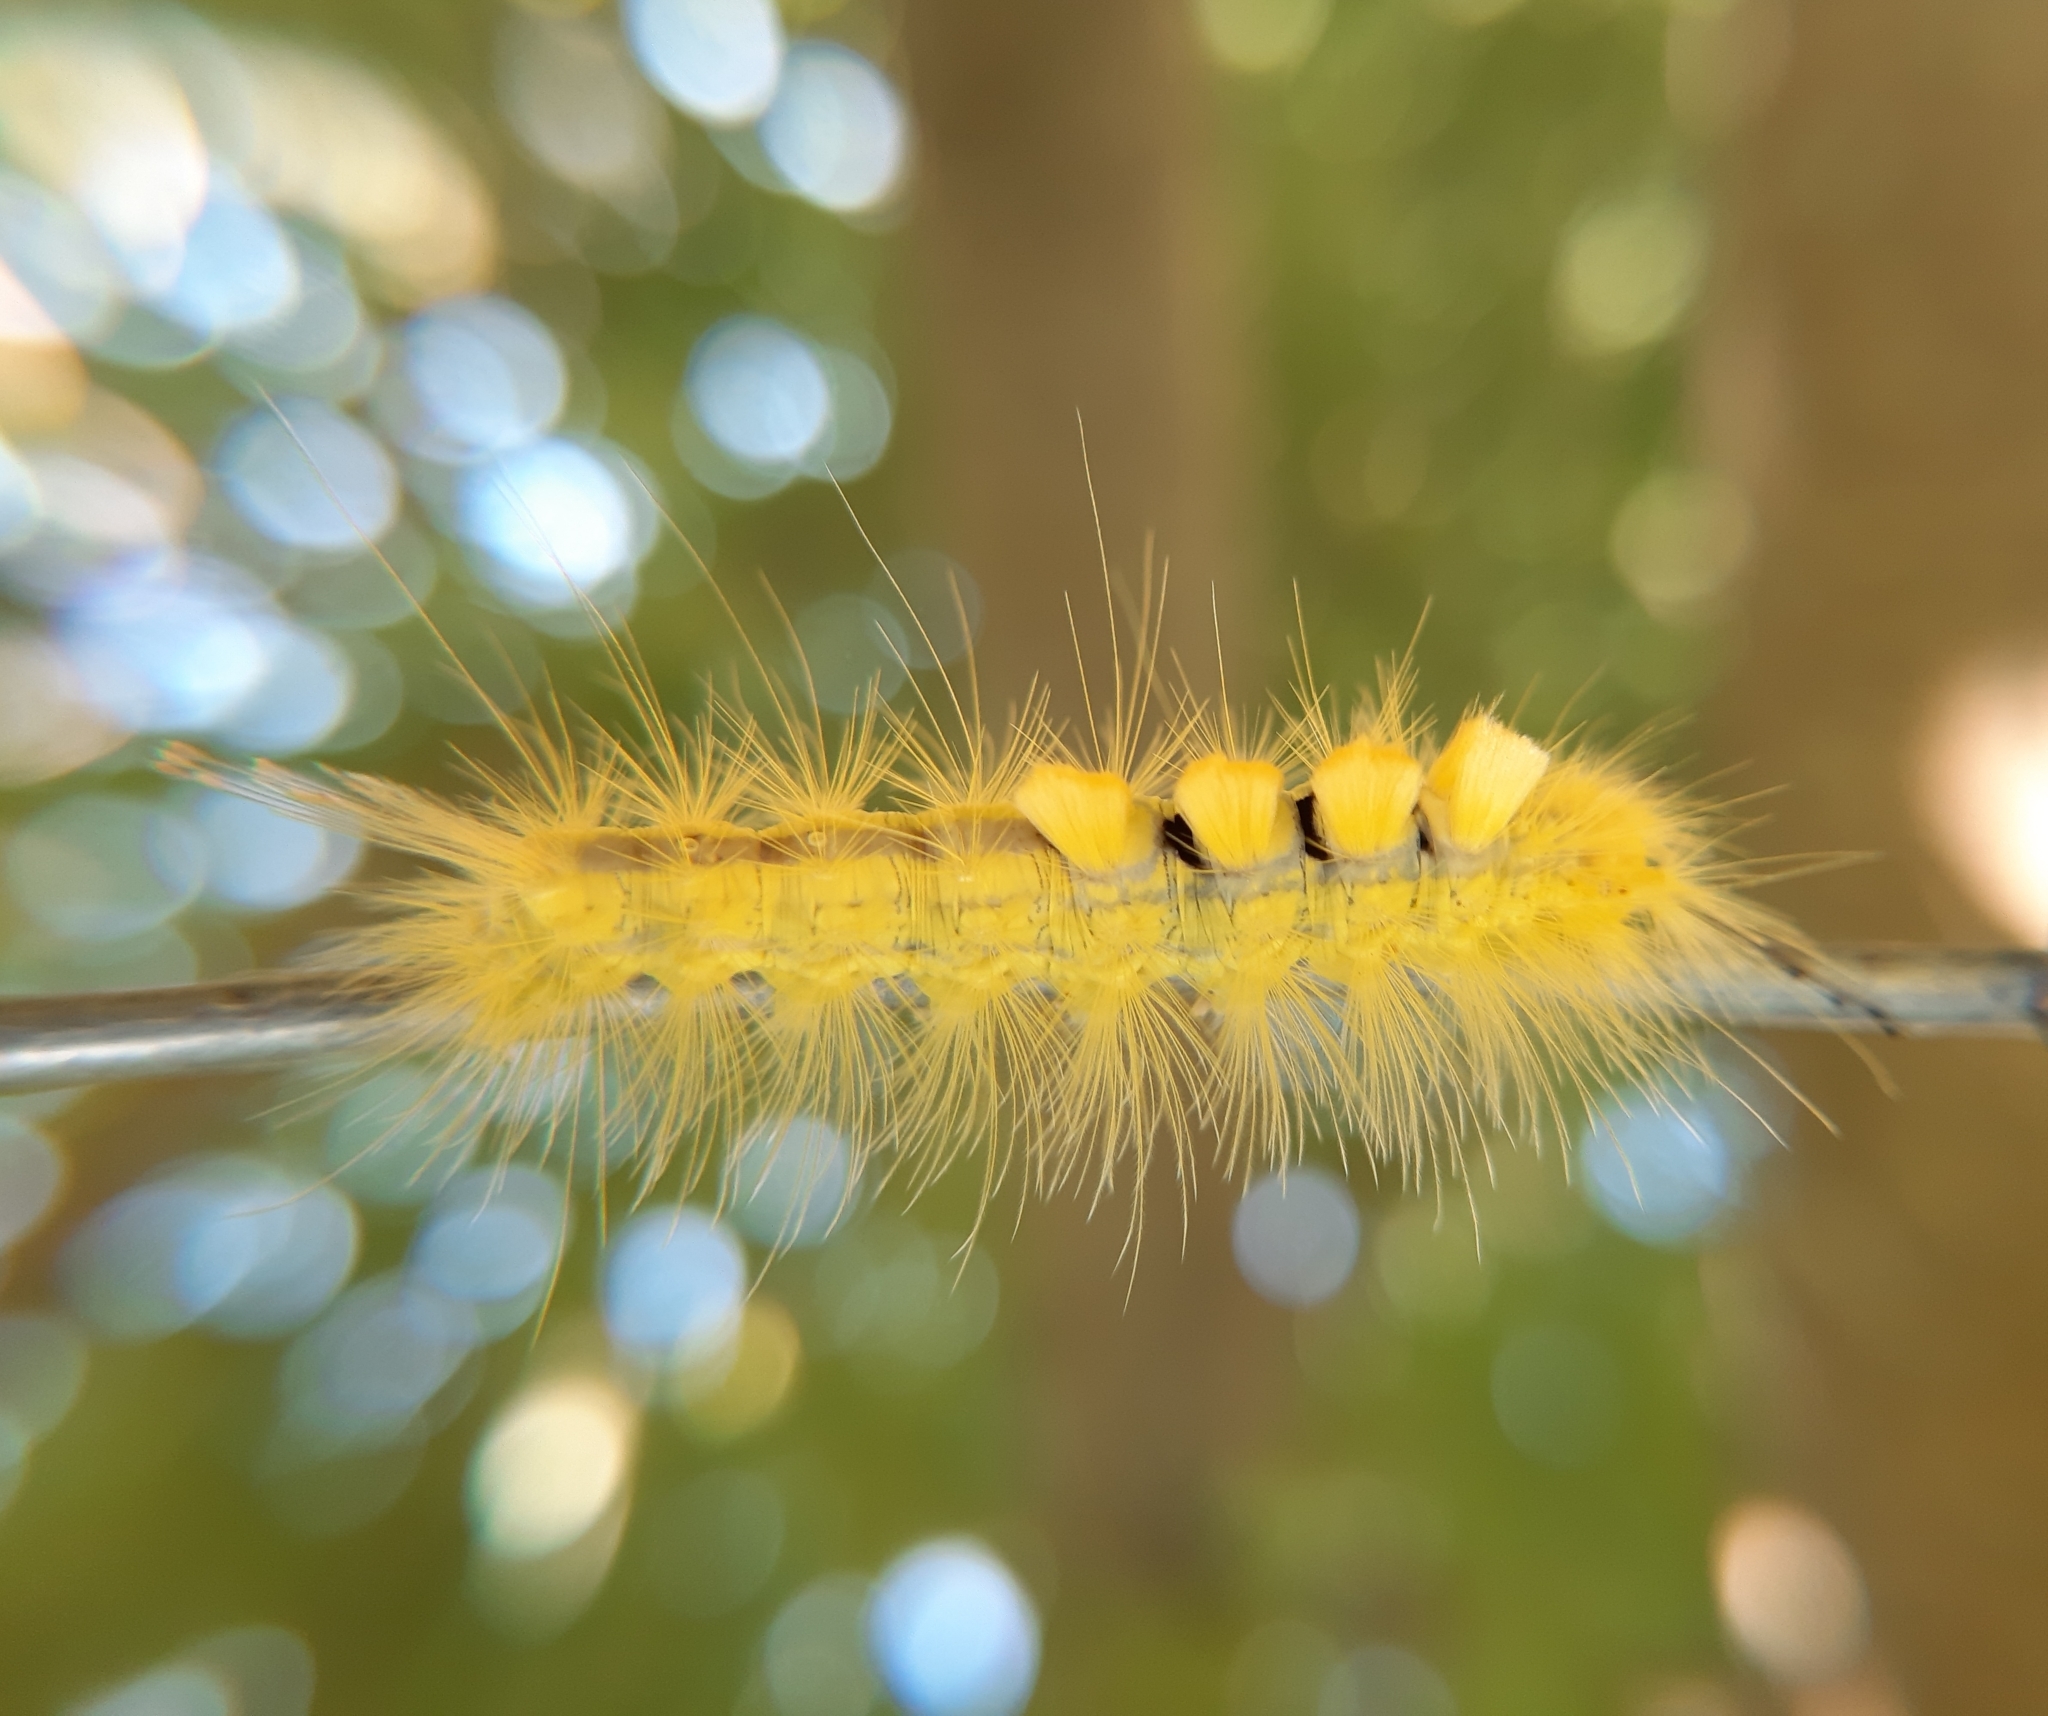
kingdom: Animalia
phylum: Arthropoda
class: Insecta
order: Lepidoptera
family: Erebidae
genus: Orgyia
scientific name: Orgyia definita
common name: Definite tussock moth
